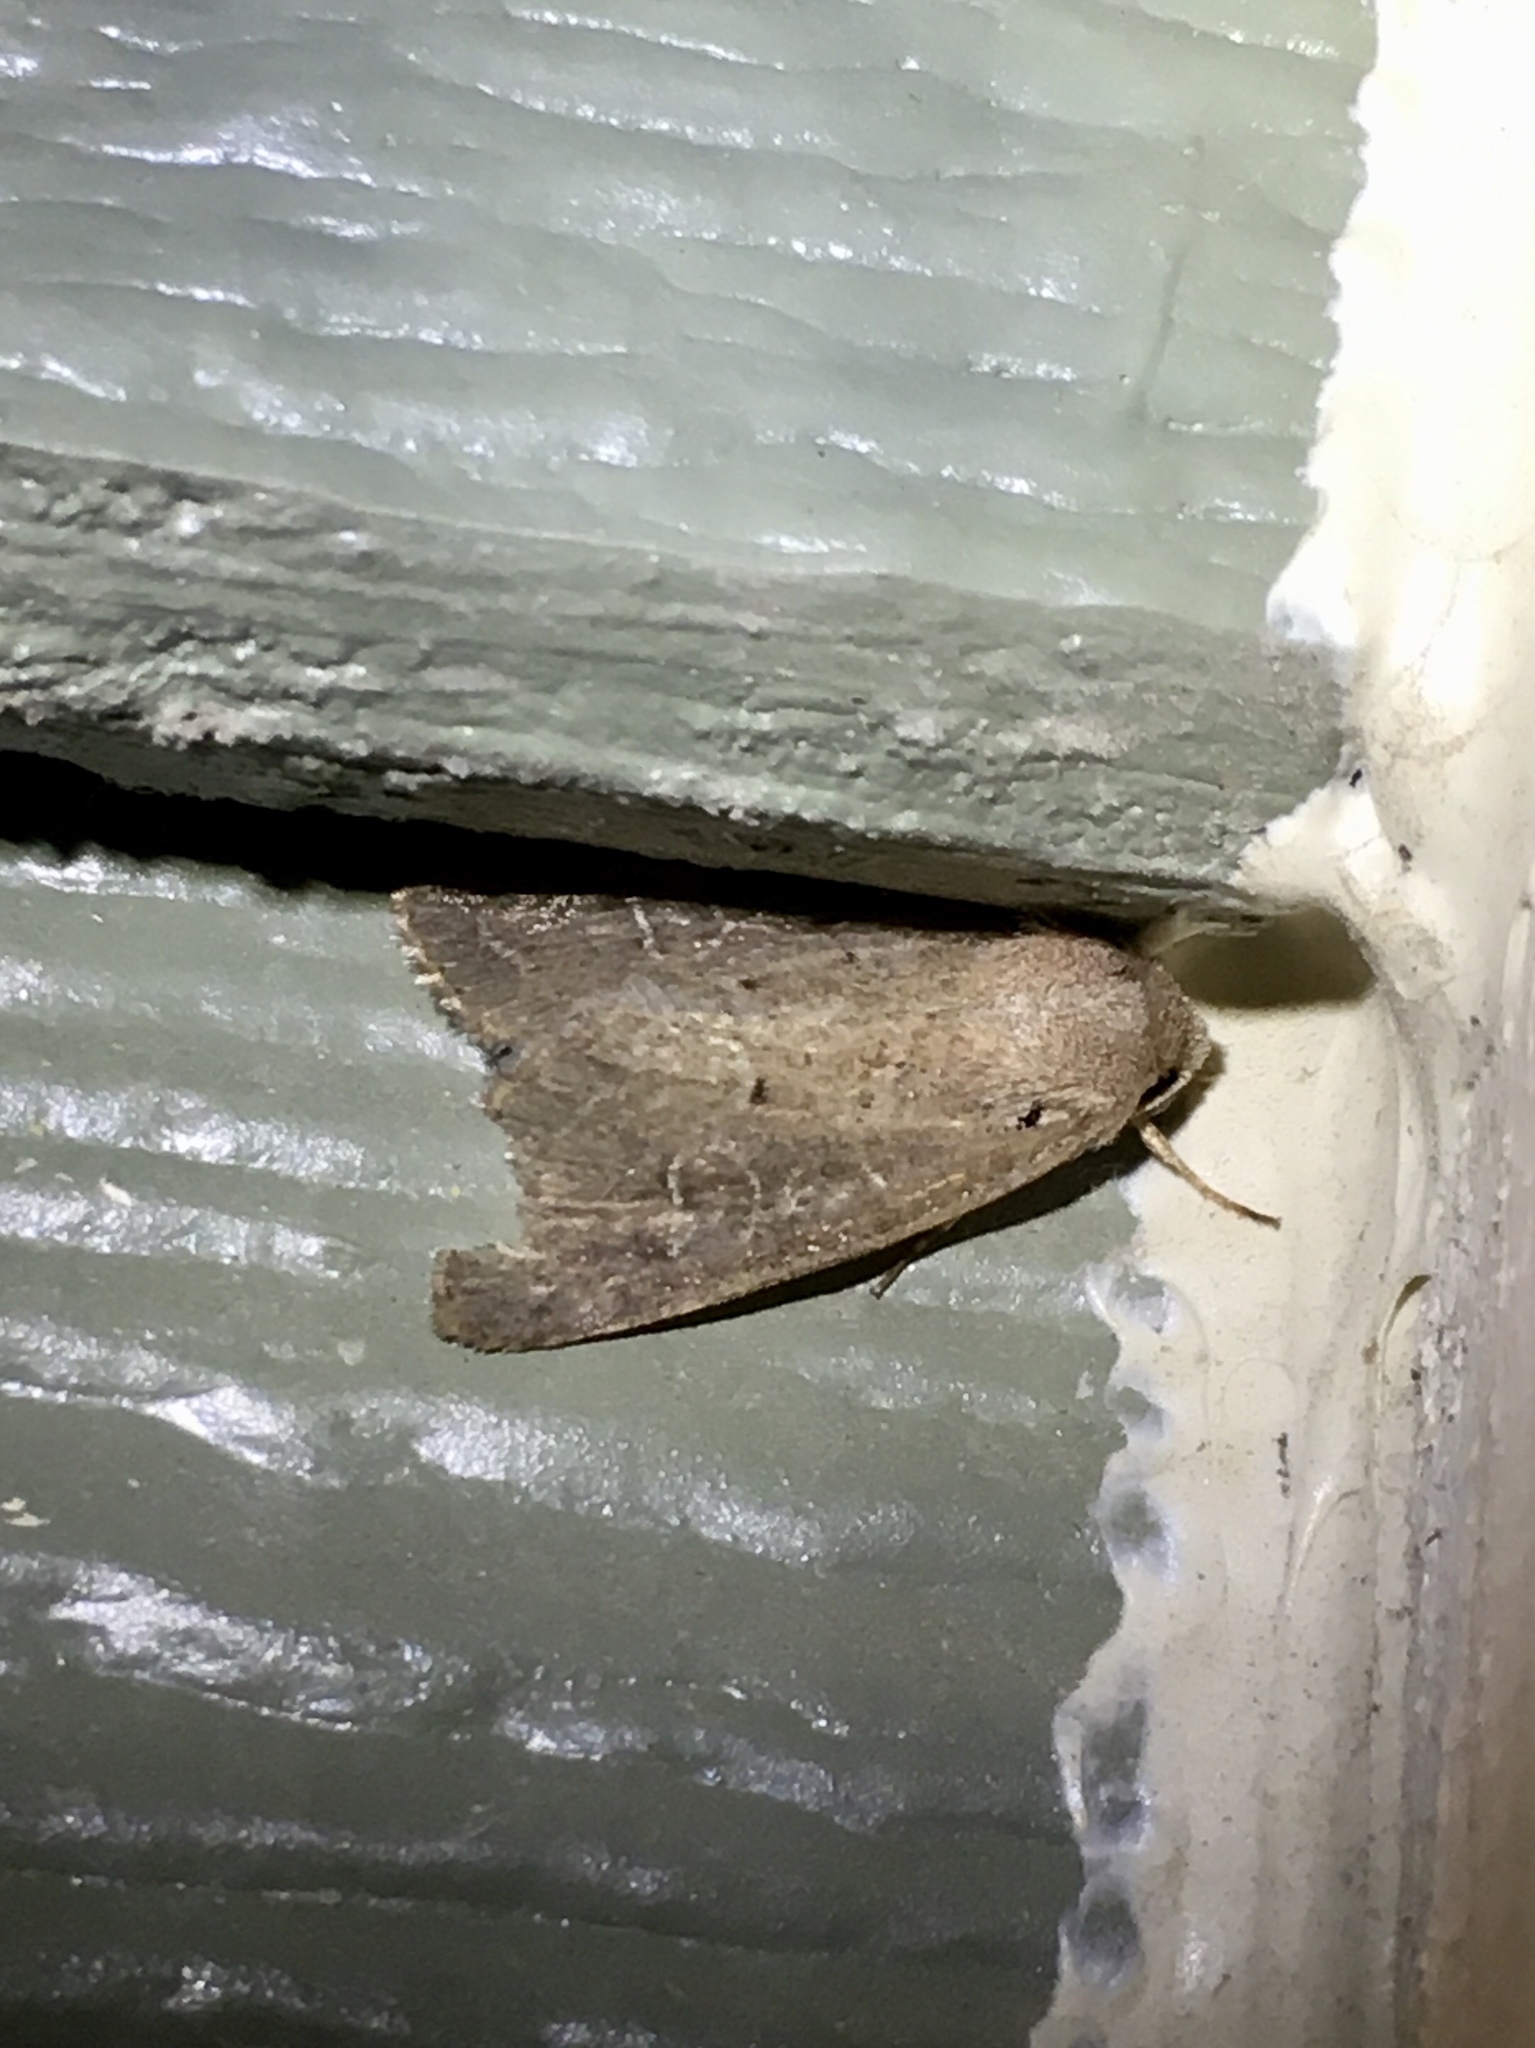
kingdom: Animalia
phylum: Arthropoda
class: Insecta
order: Lepidoptera
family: Noctuidae
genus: Kocakina
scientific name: Kocakina fidelis
